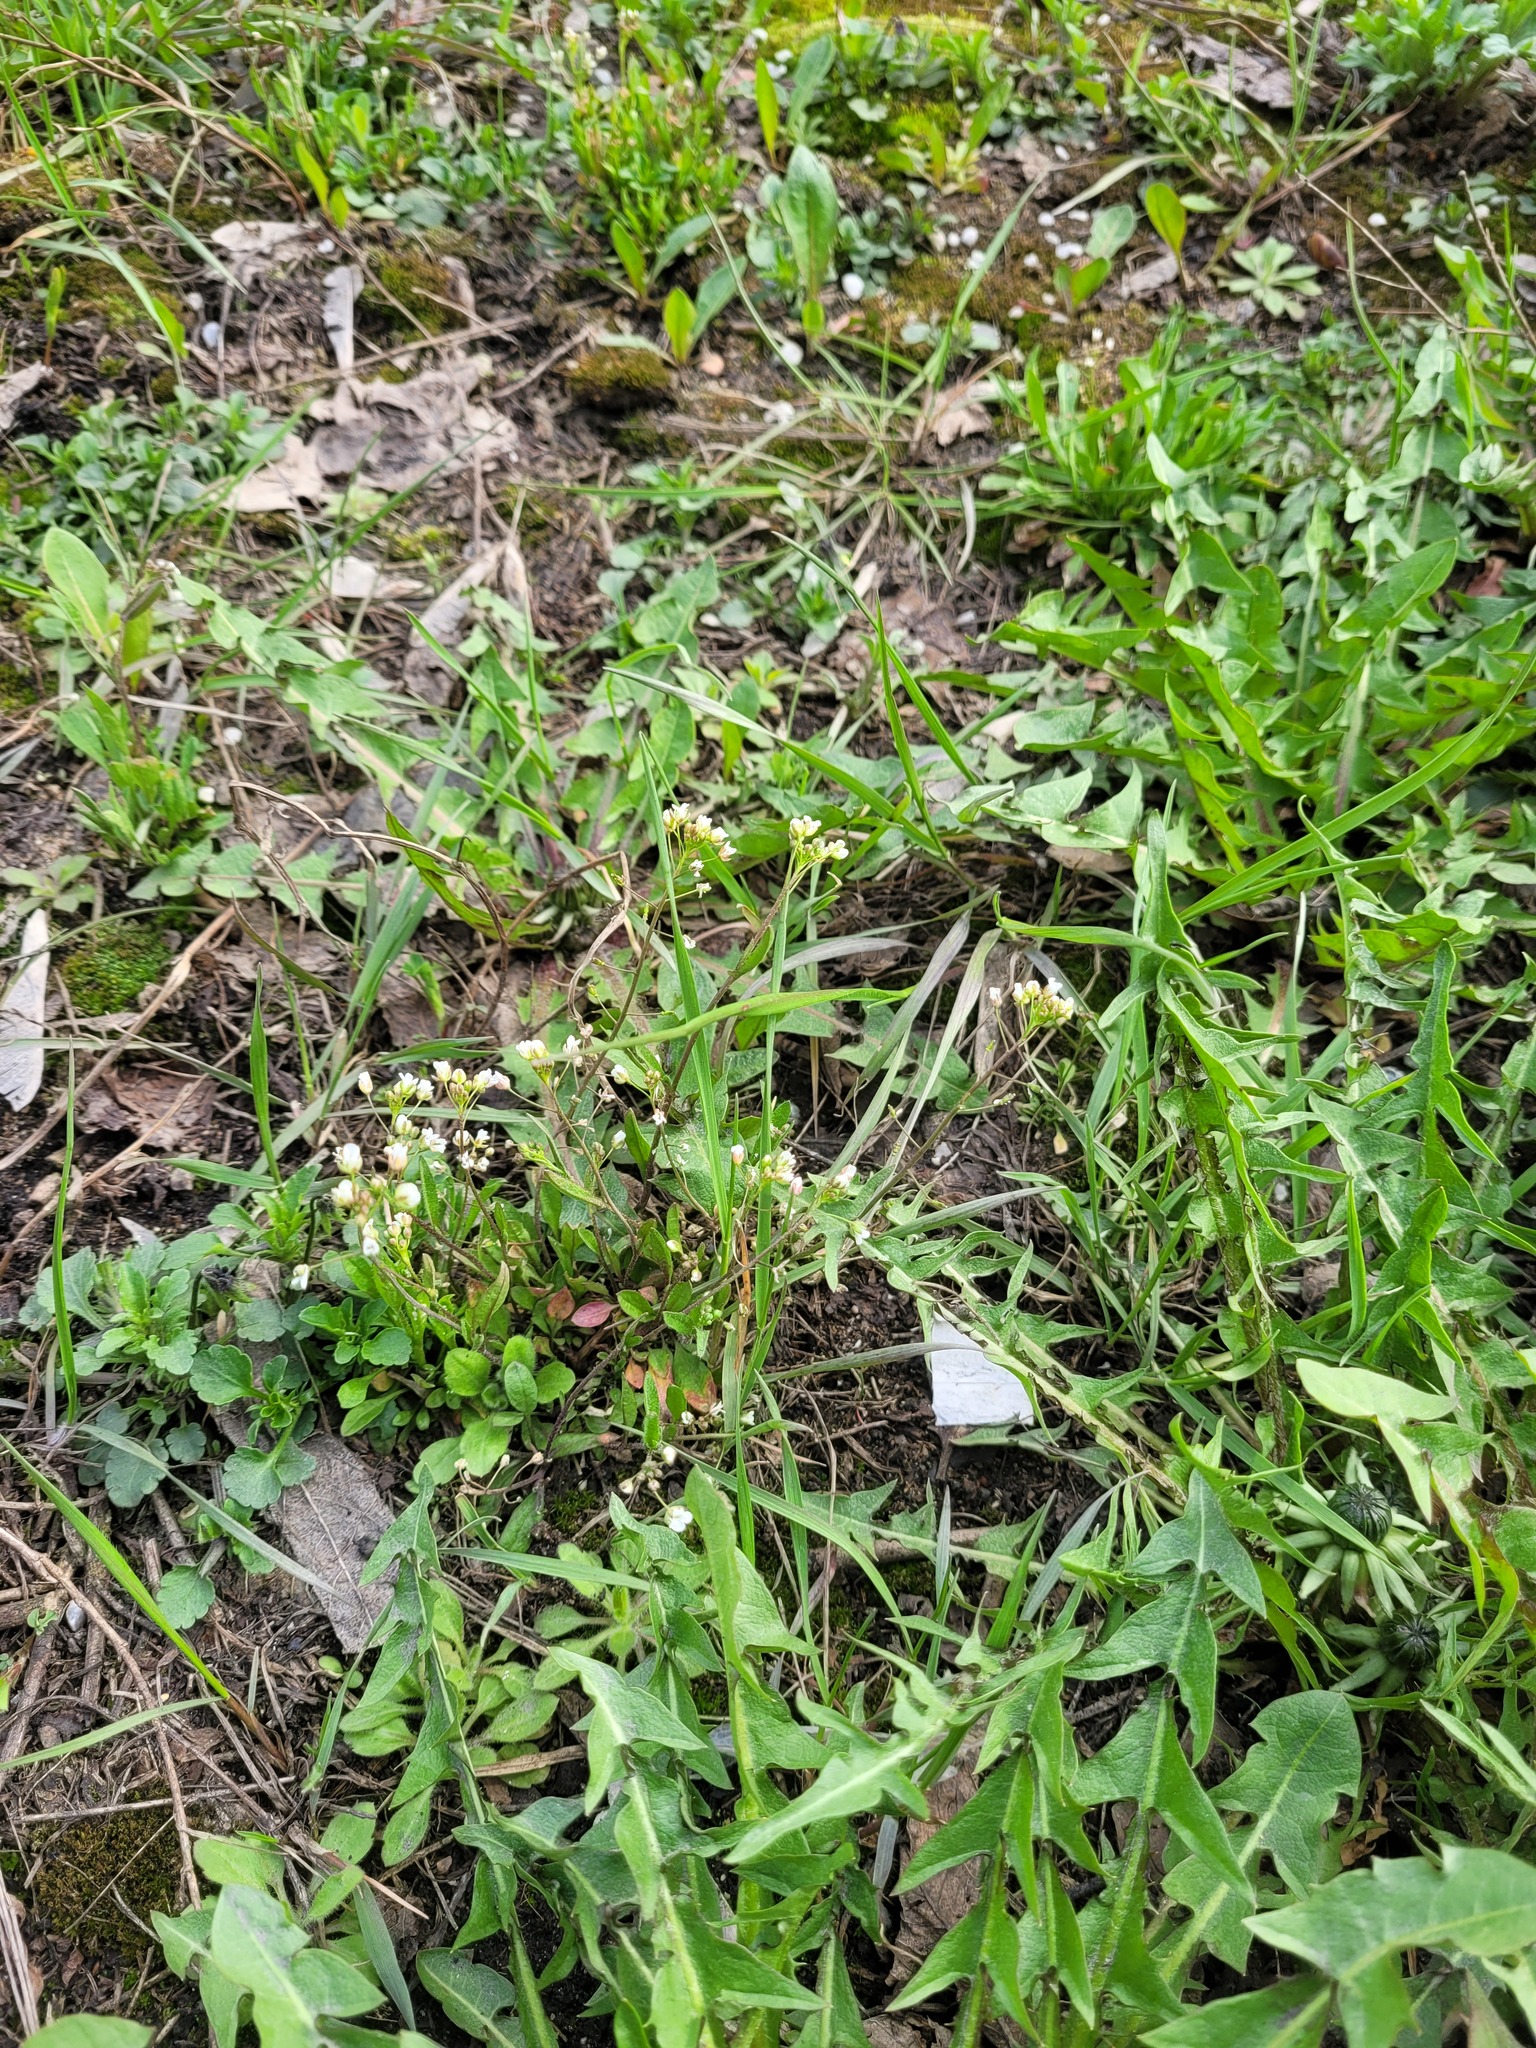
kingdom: Plantae
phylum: Tracheophyta
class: Magnoliopsida
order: Brassicales
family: Brassicaceae
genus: Capsella
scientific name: Capsella bursa-pastoris
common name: Shepherd's purse
